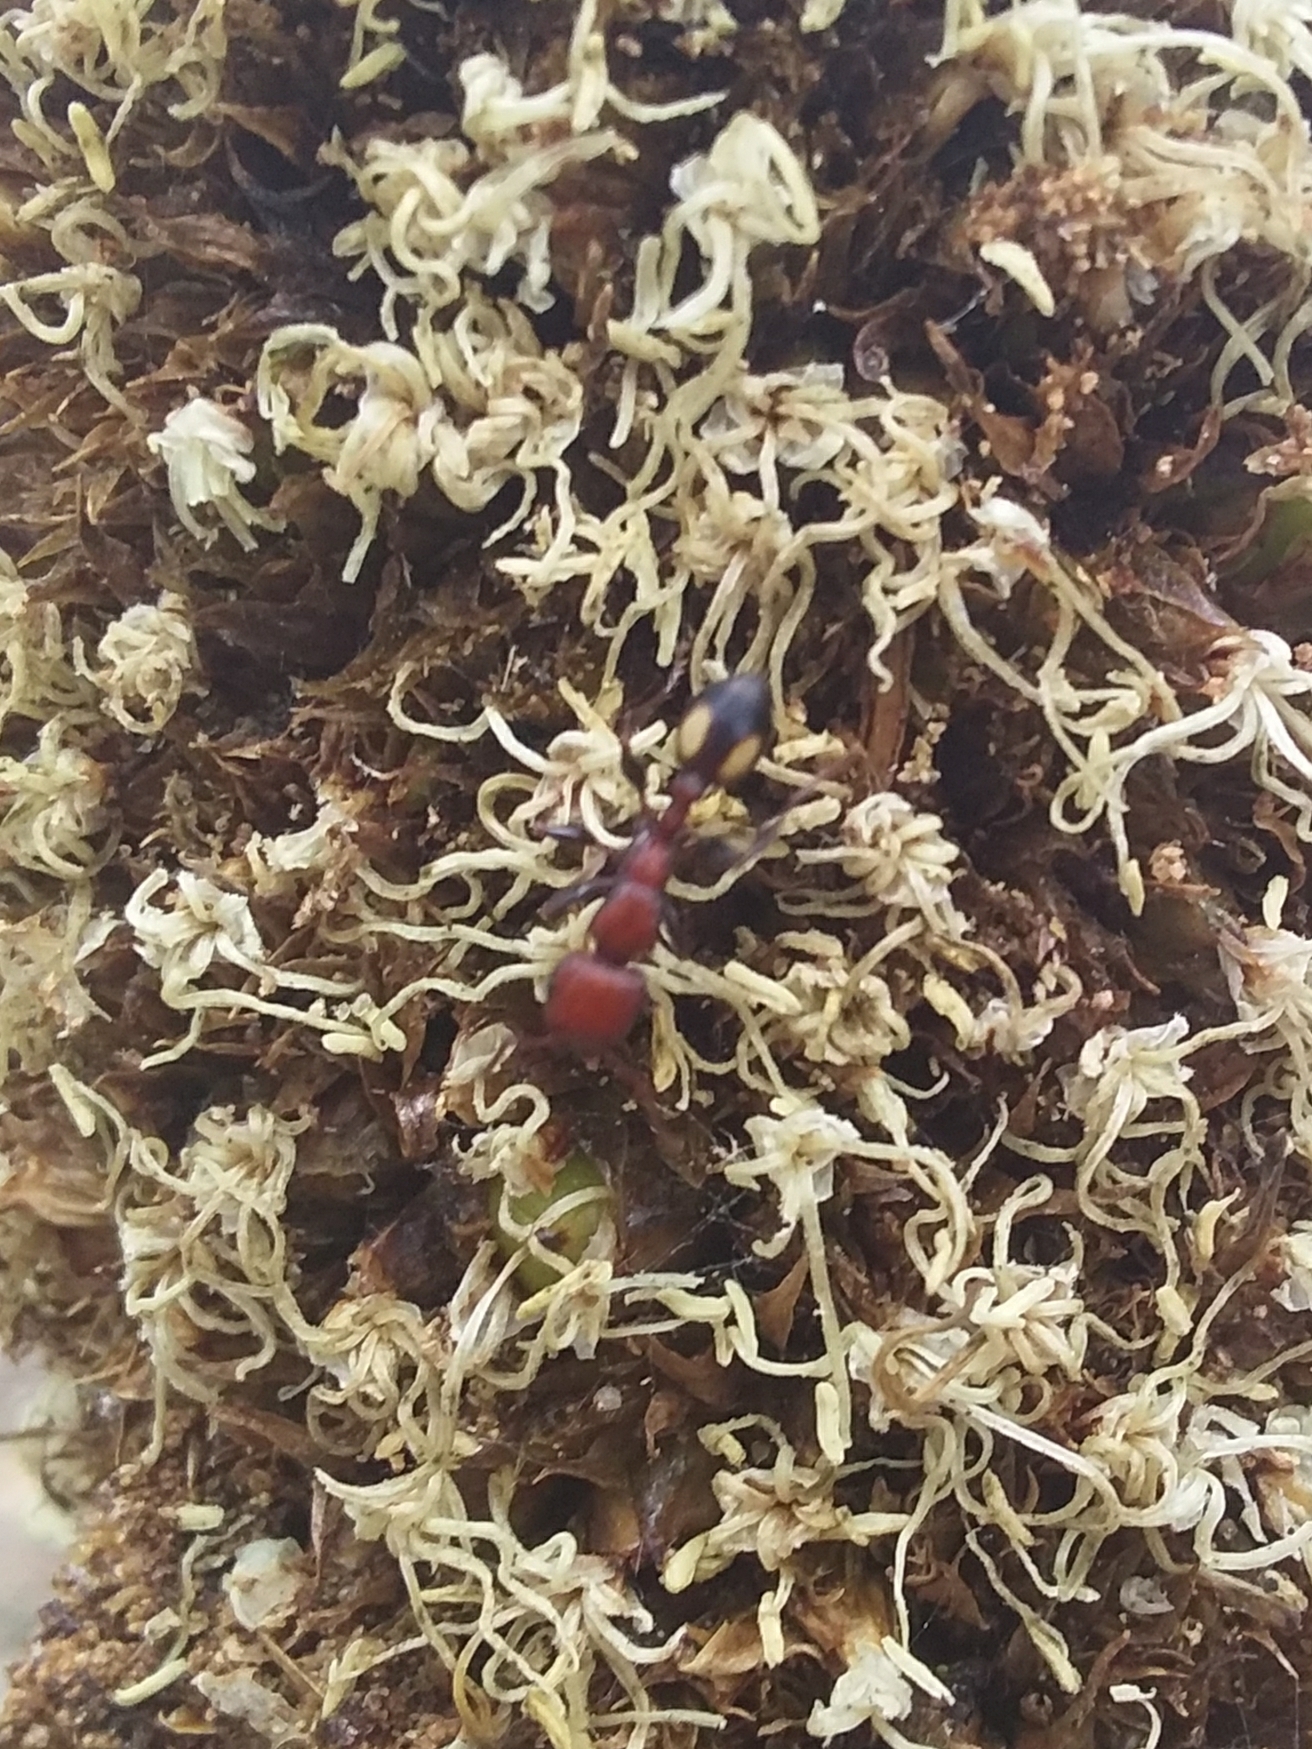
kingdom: Animalia
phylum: Arthropoda
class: Insecta
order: Hymenoptera
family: Formicidae
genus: Podomyrma
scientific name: Podomyrma adelaidae
